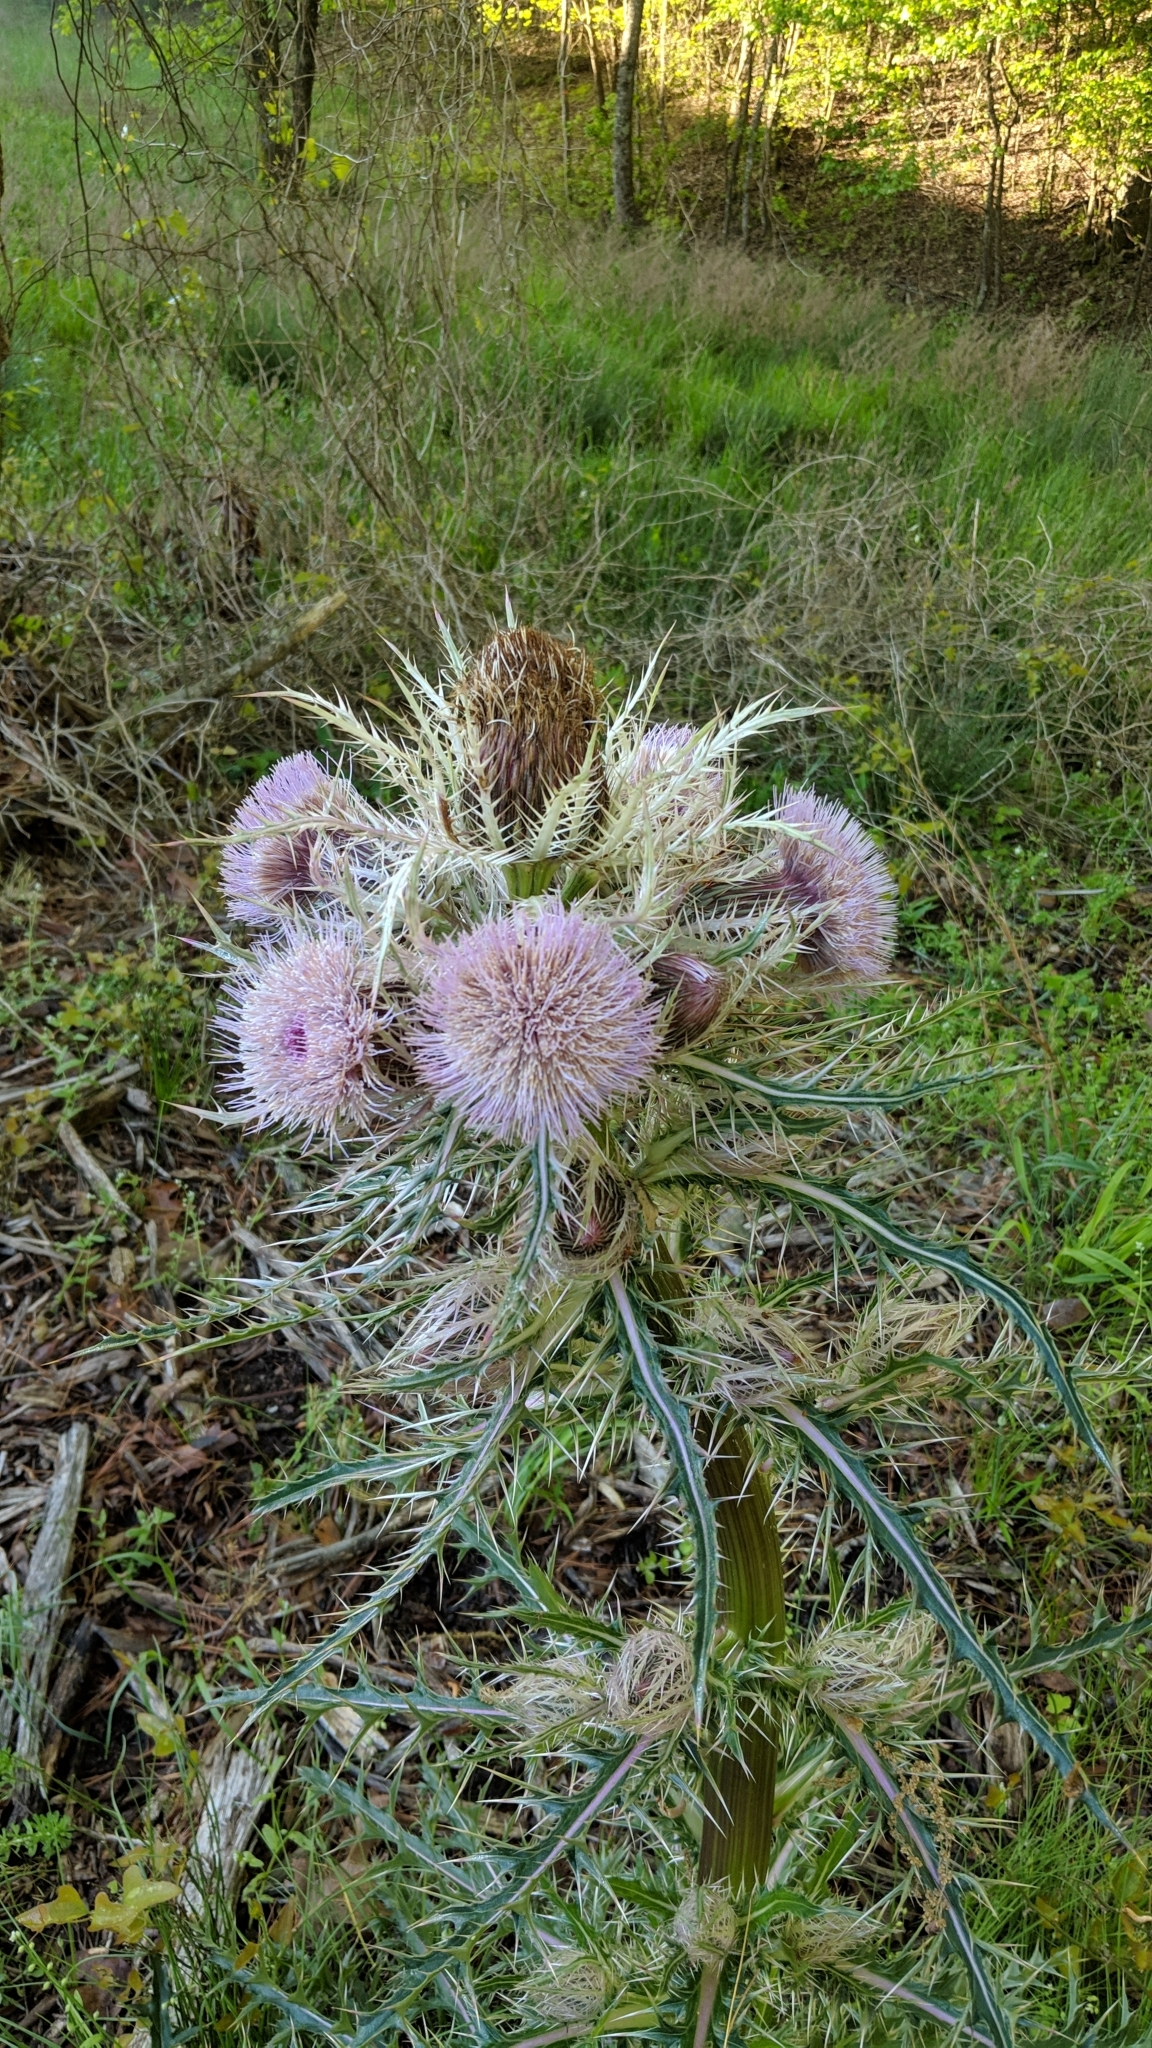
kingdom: Plantae
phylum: Tracheophyta
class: Magnoliopsida
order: Asterales
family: Asteraceae
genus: Cirsium
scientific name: Cirsium horridulum
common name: Bristly thistle
